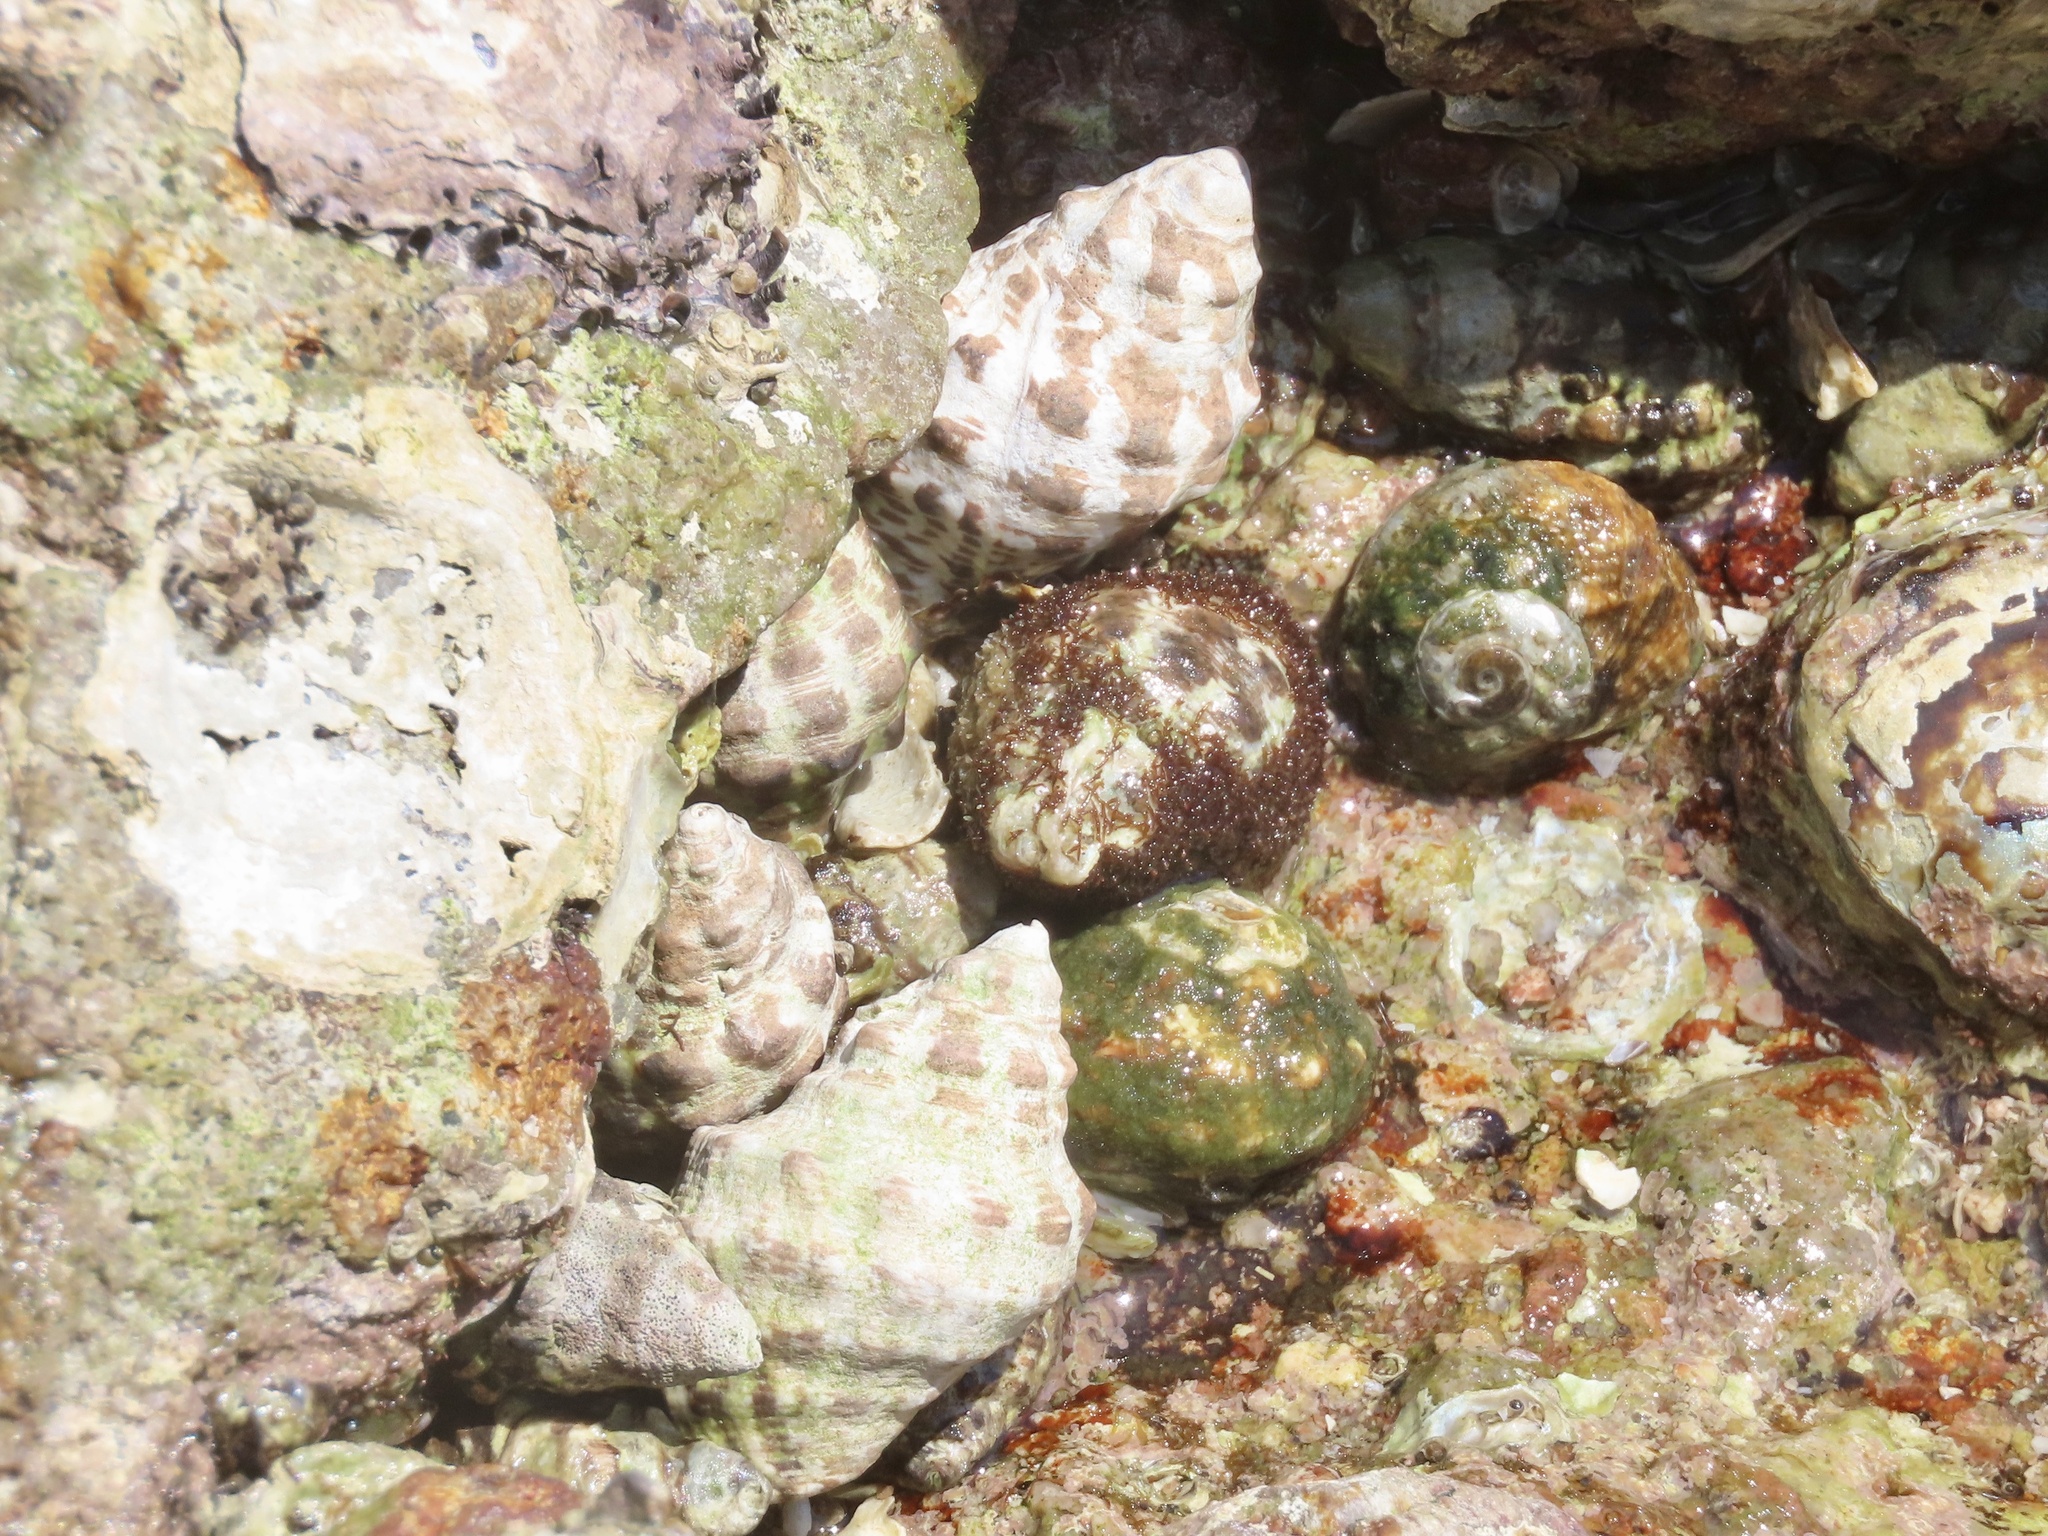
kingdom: Animalia
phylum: Mollusca
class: Gastropoda
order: Neogastropoda
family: Muricidae
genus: Reishia
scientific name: Reishia clavigera
